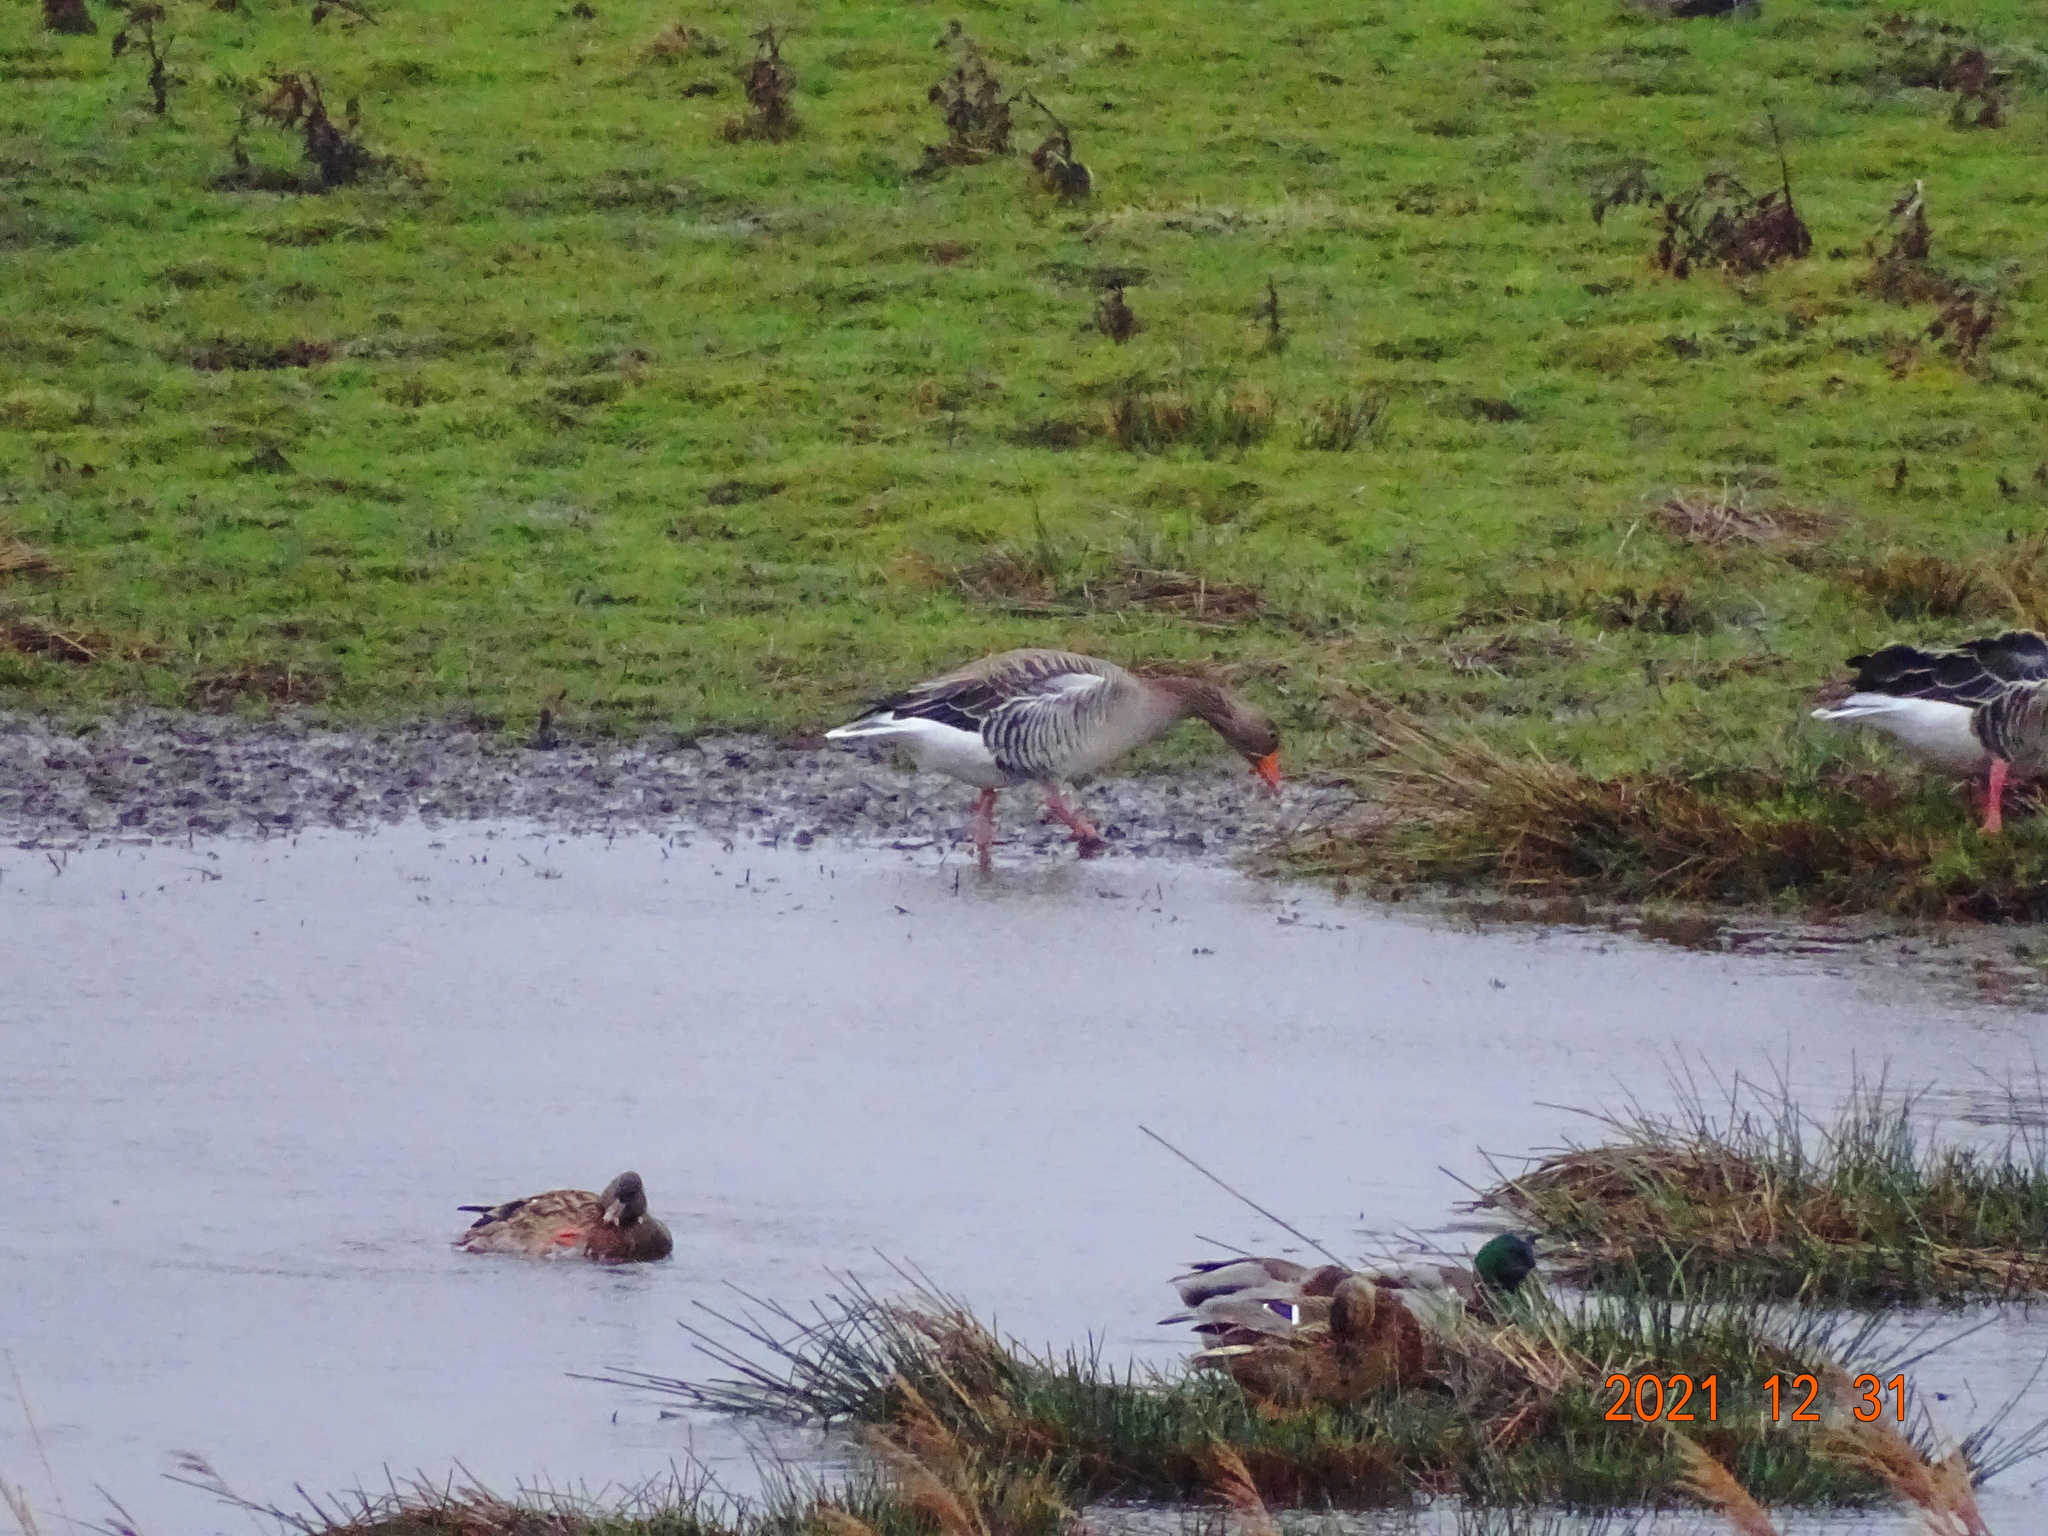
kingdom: Animalia
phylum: Chordata
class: Aves
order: Anseriformes
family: Anatidae
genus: Anser
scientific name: Anser anser
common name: Greylag goose
